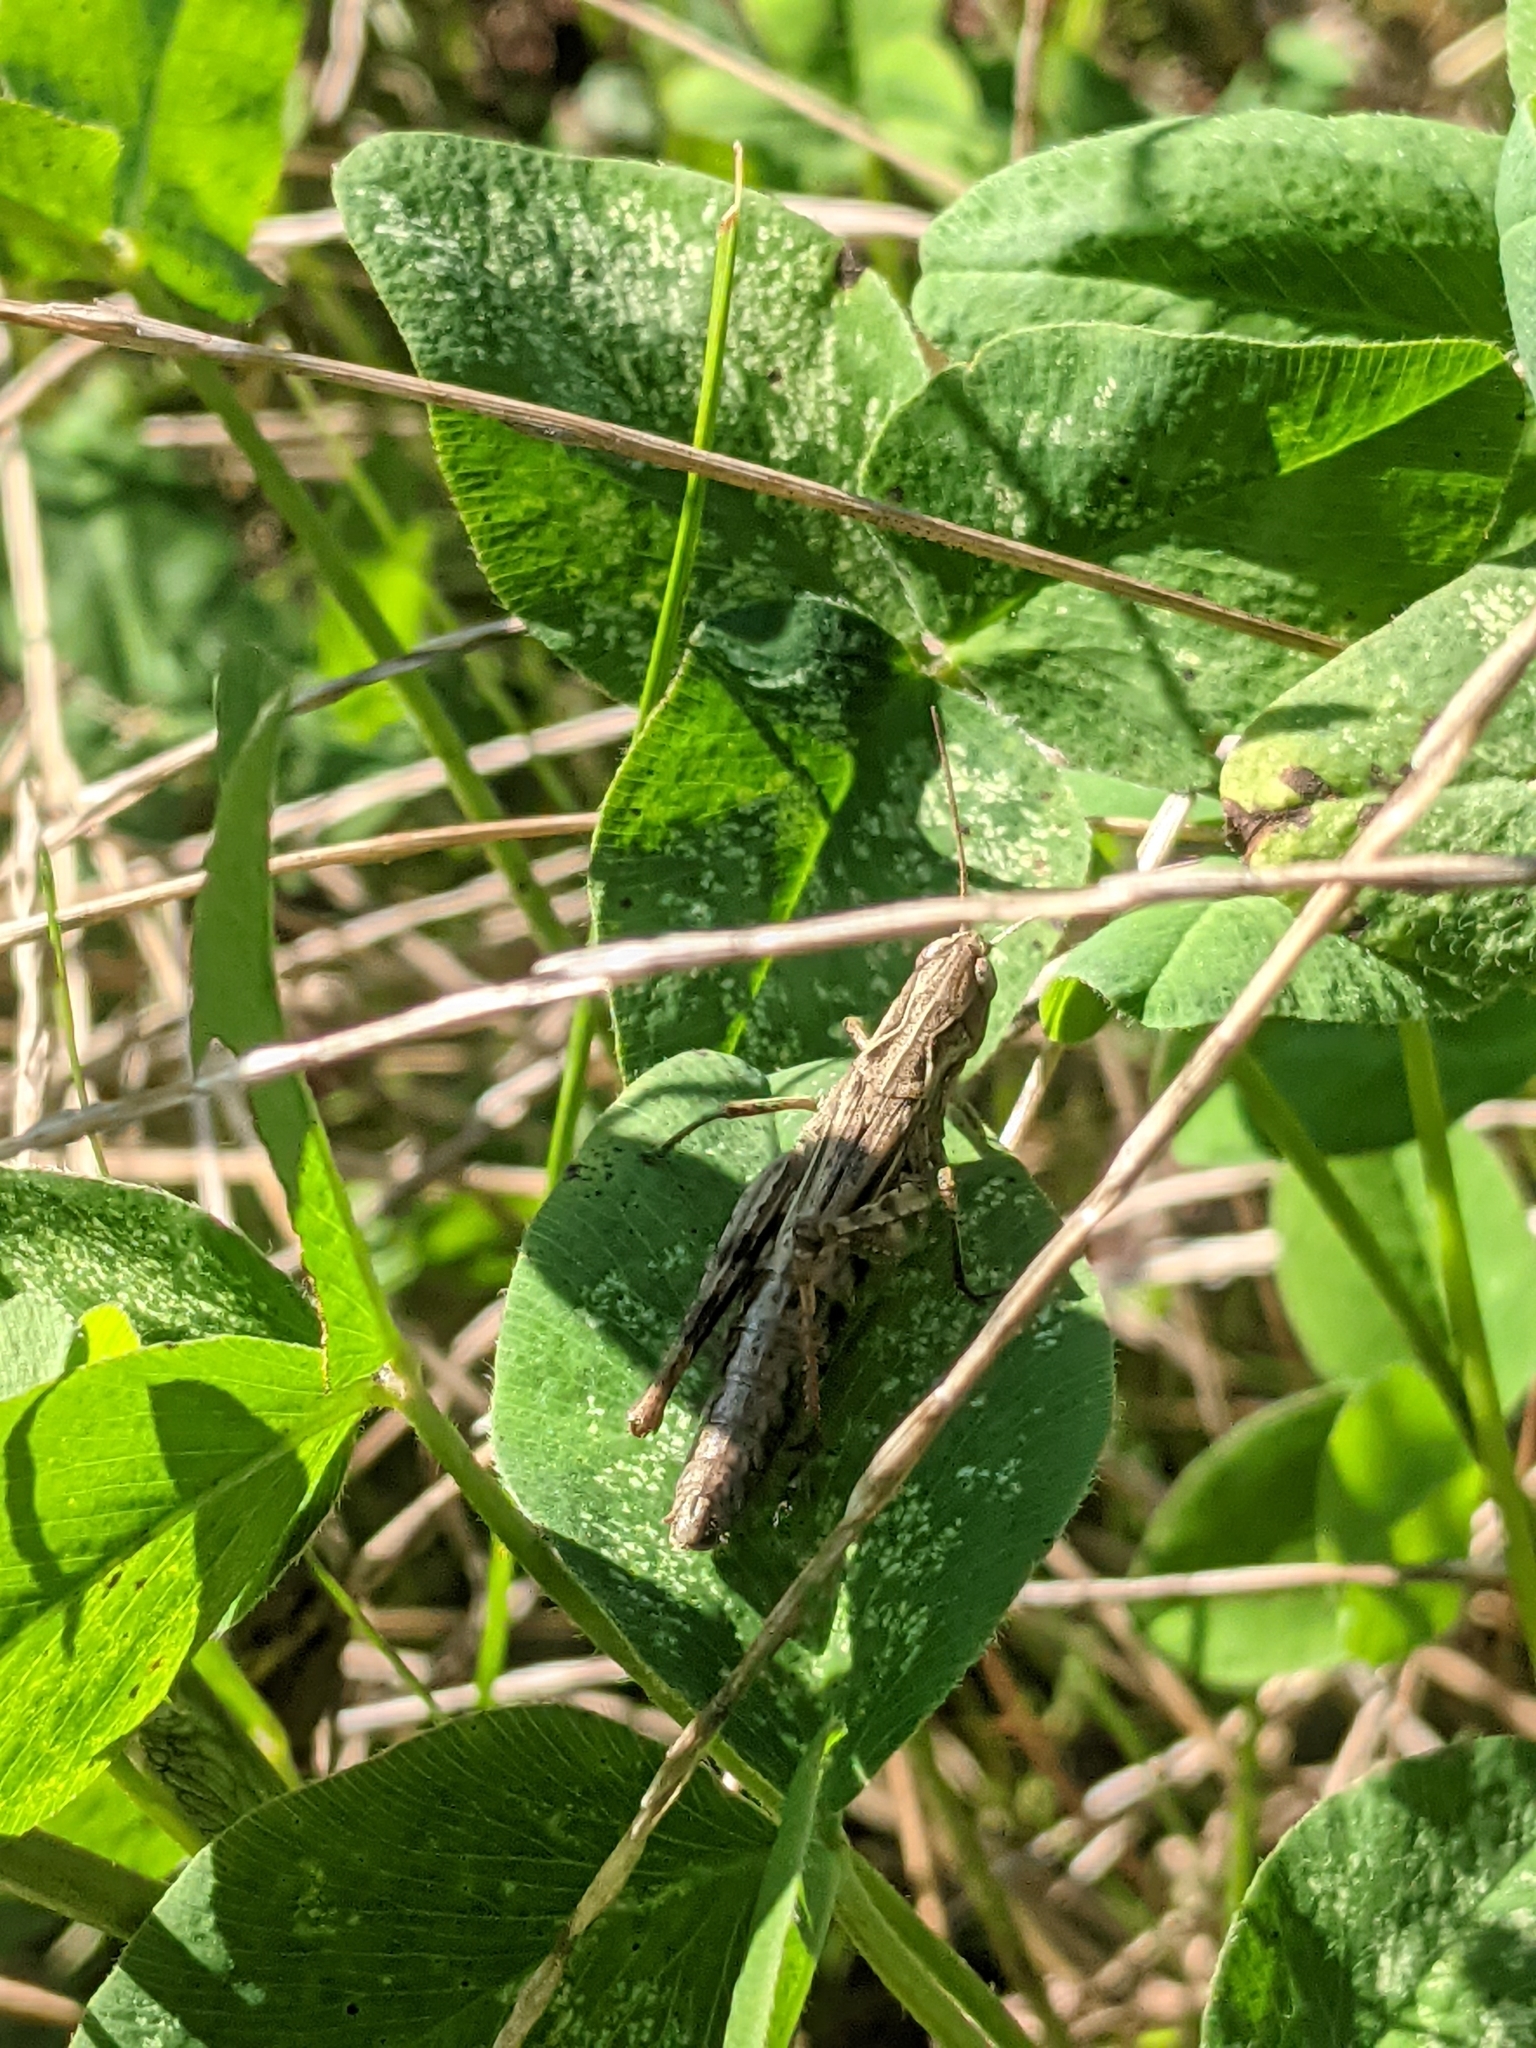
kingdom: Animalia
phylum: Arthropoda
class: Insecta
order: Orthoptera
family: Acrididae
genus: Chorthippus
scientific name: Chorthippus macrocerus
